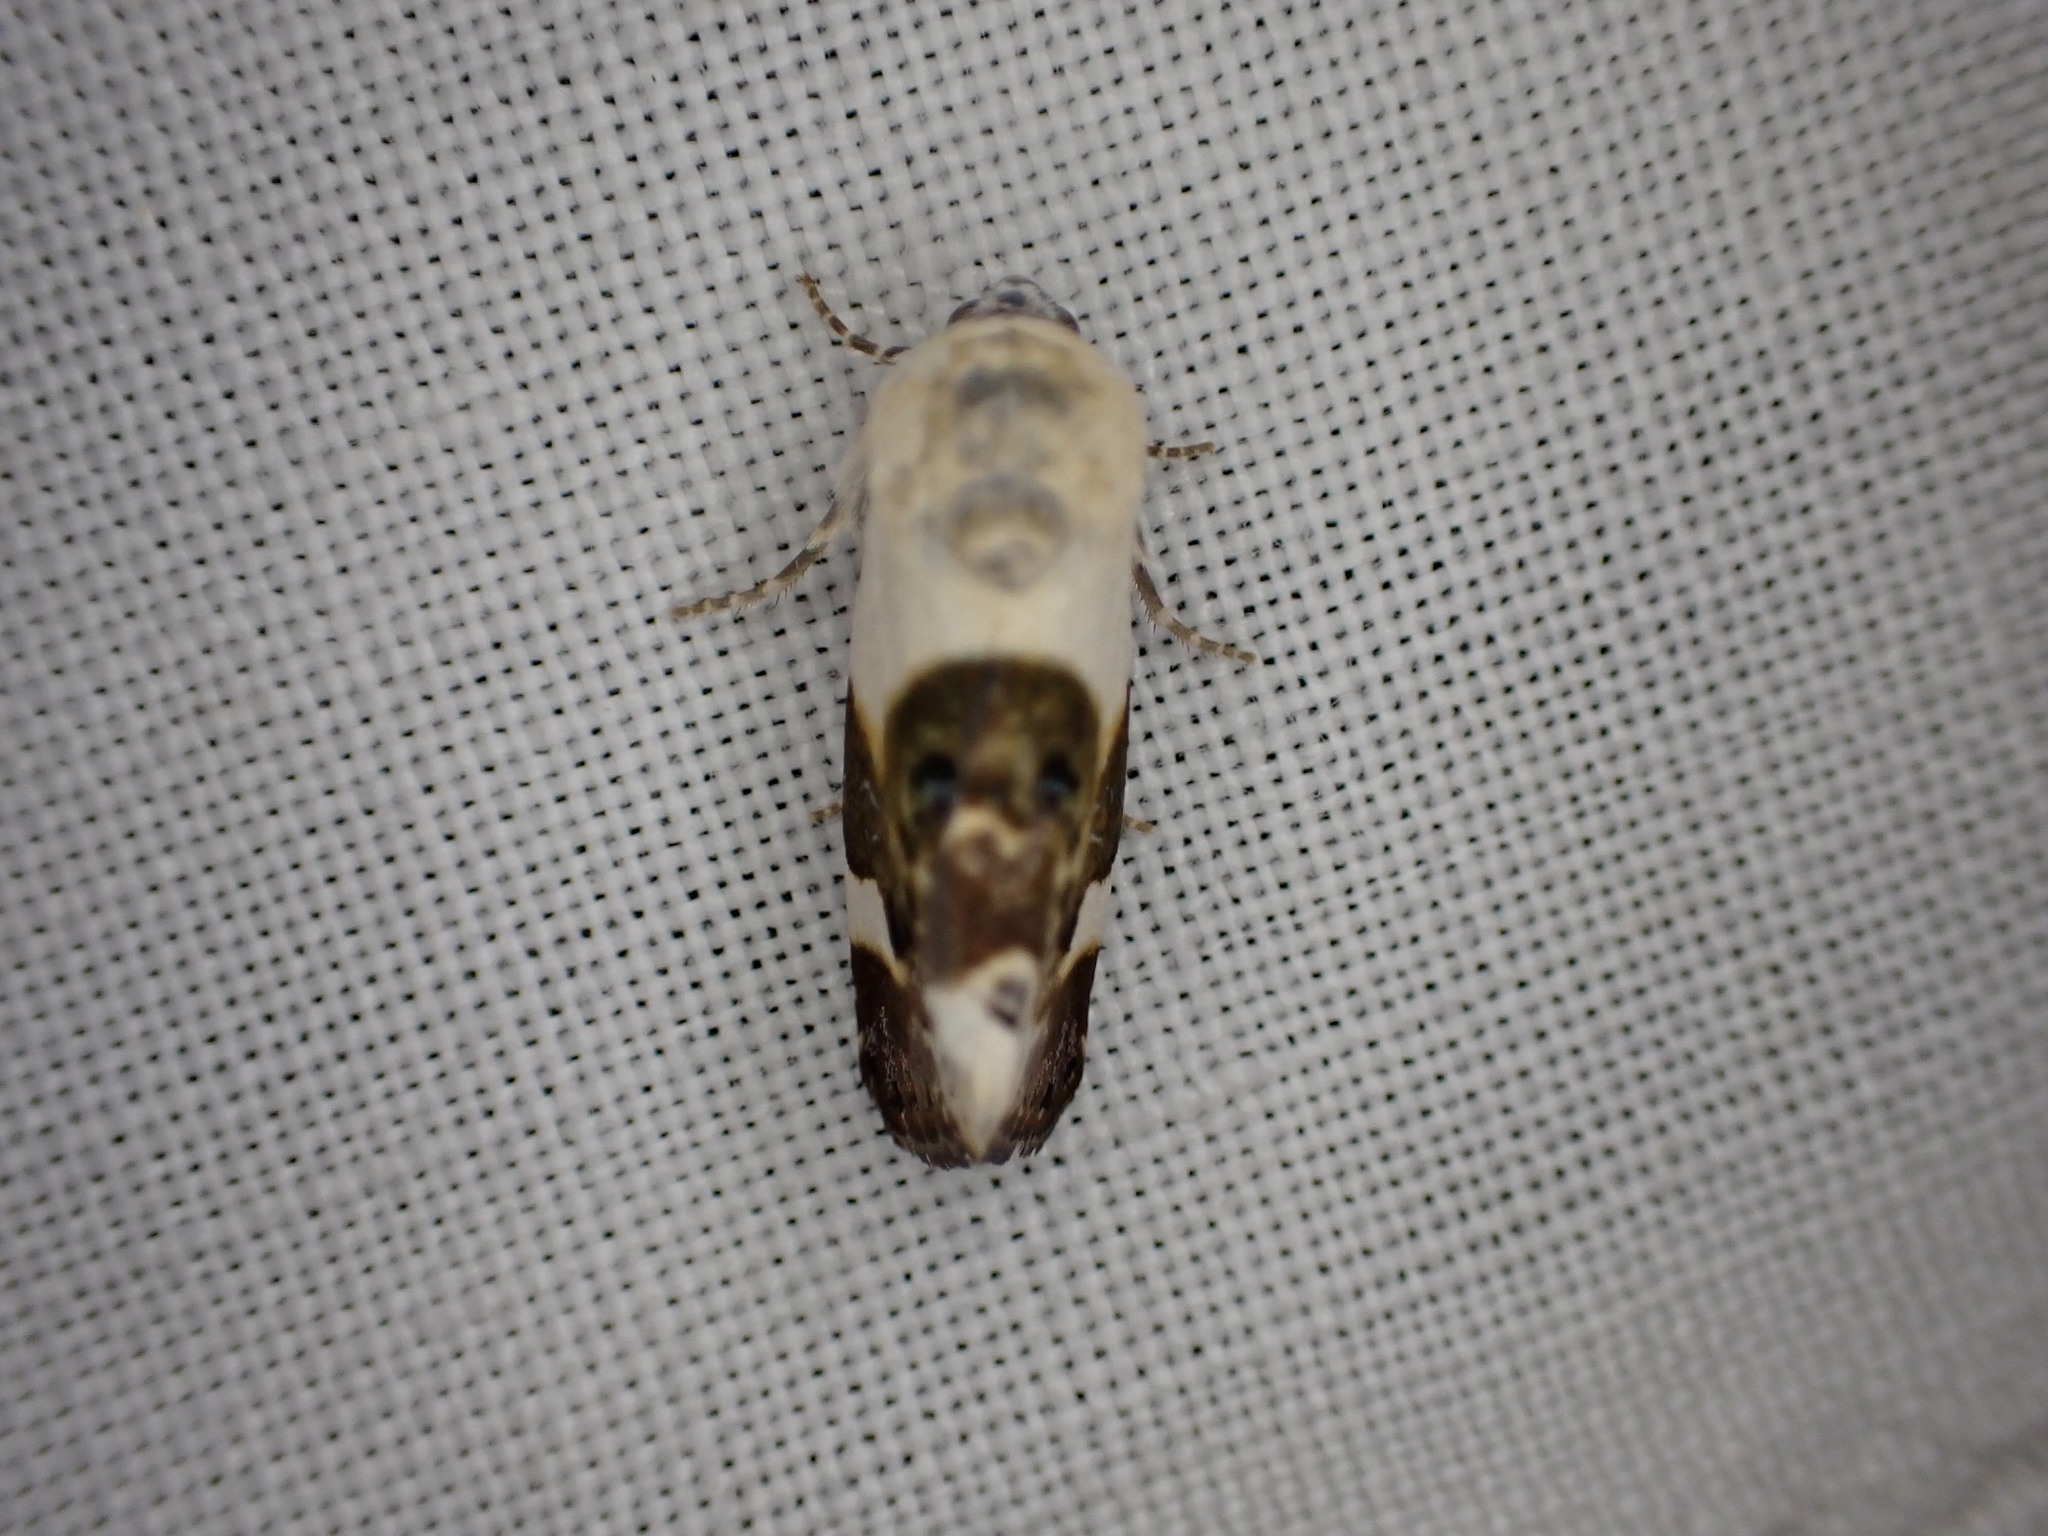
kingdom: Animalia
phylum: Arthropoda
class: Insecta
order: Lepidoptera
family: Noctuidae
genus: Acontia
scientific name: Acontia lucida
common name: Pale shoulder
